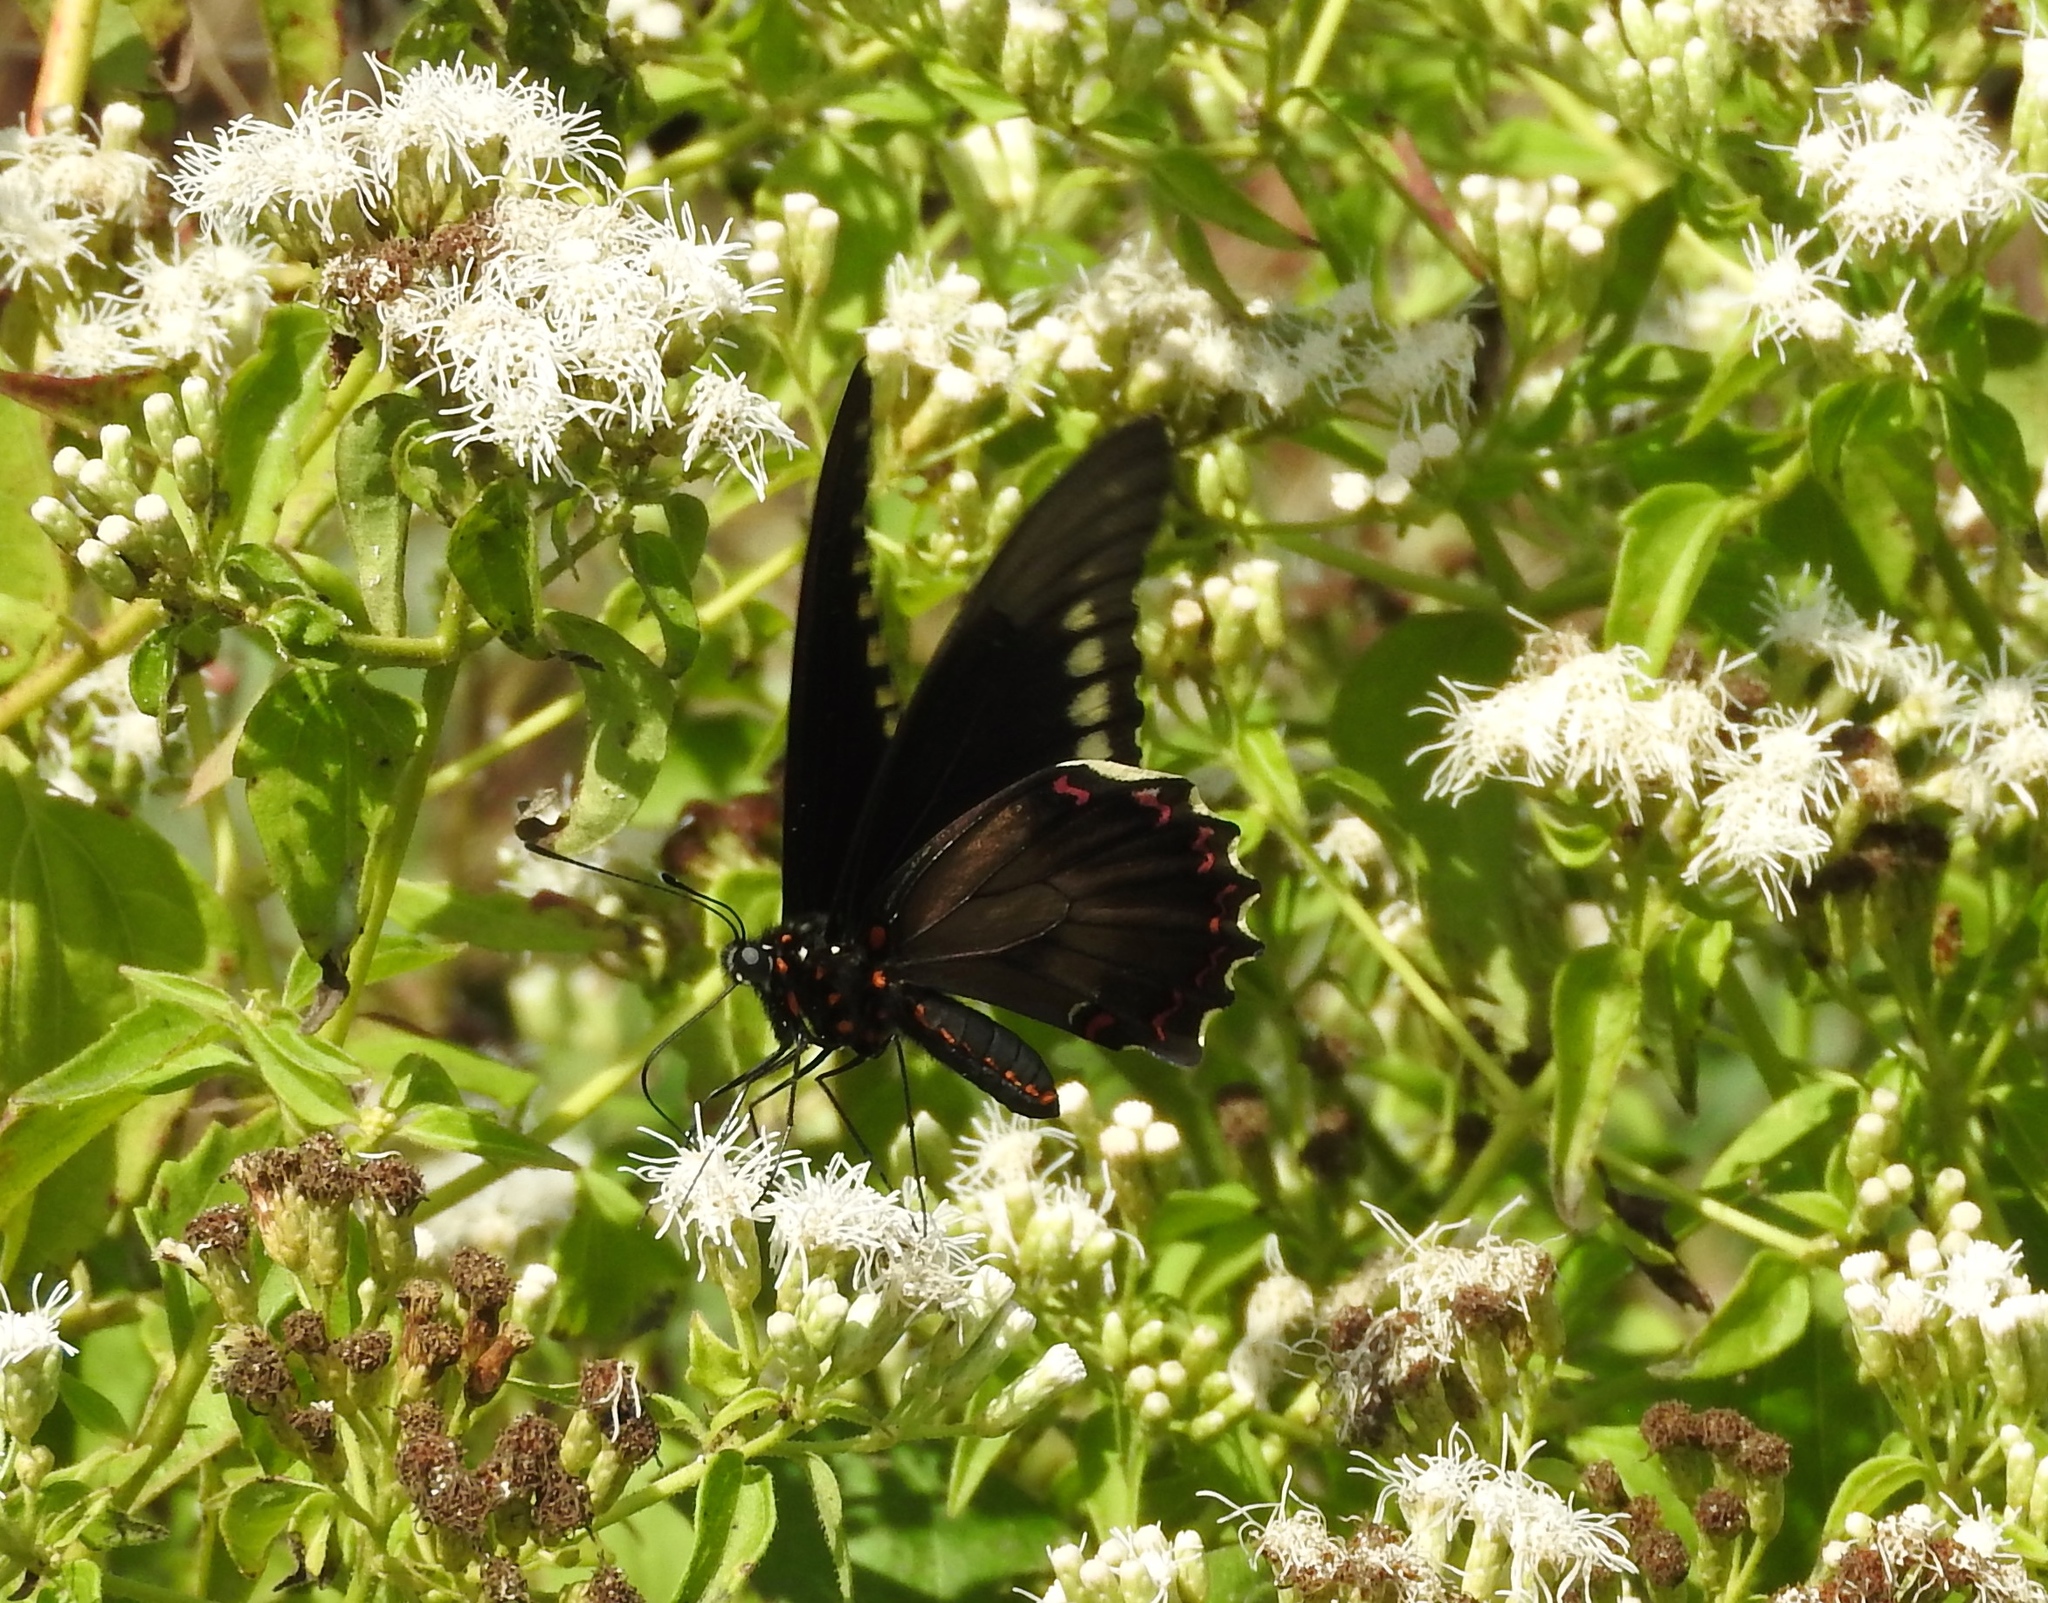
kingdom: Animalia
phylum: Arthropoda
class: Insecta
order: Lepidoptera
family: Papilionidae
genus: Battus
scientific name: Battus polydamas
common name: Polydamas swallowtail
